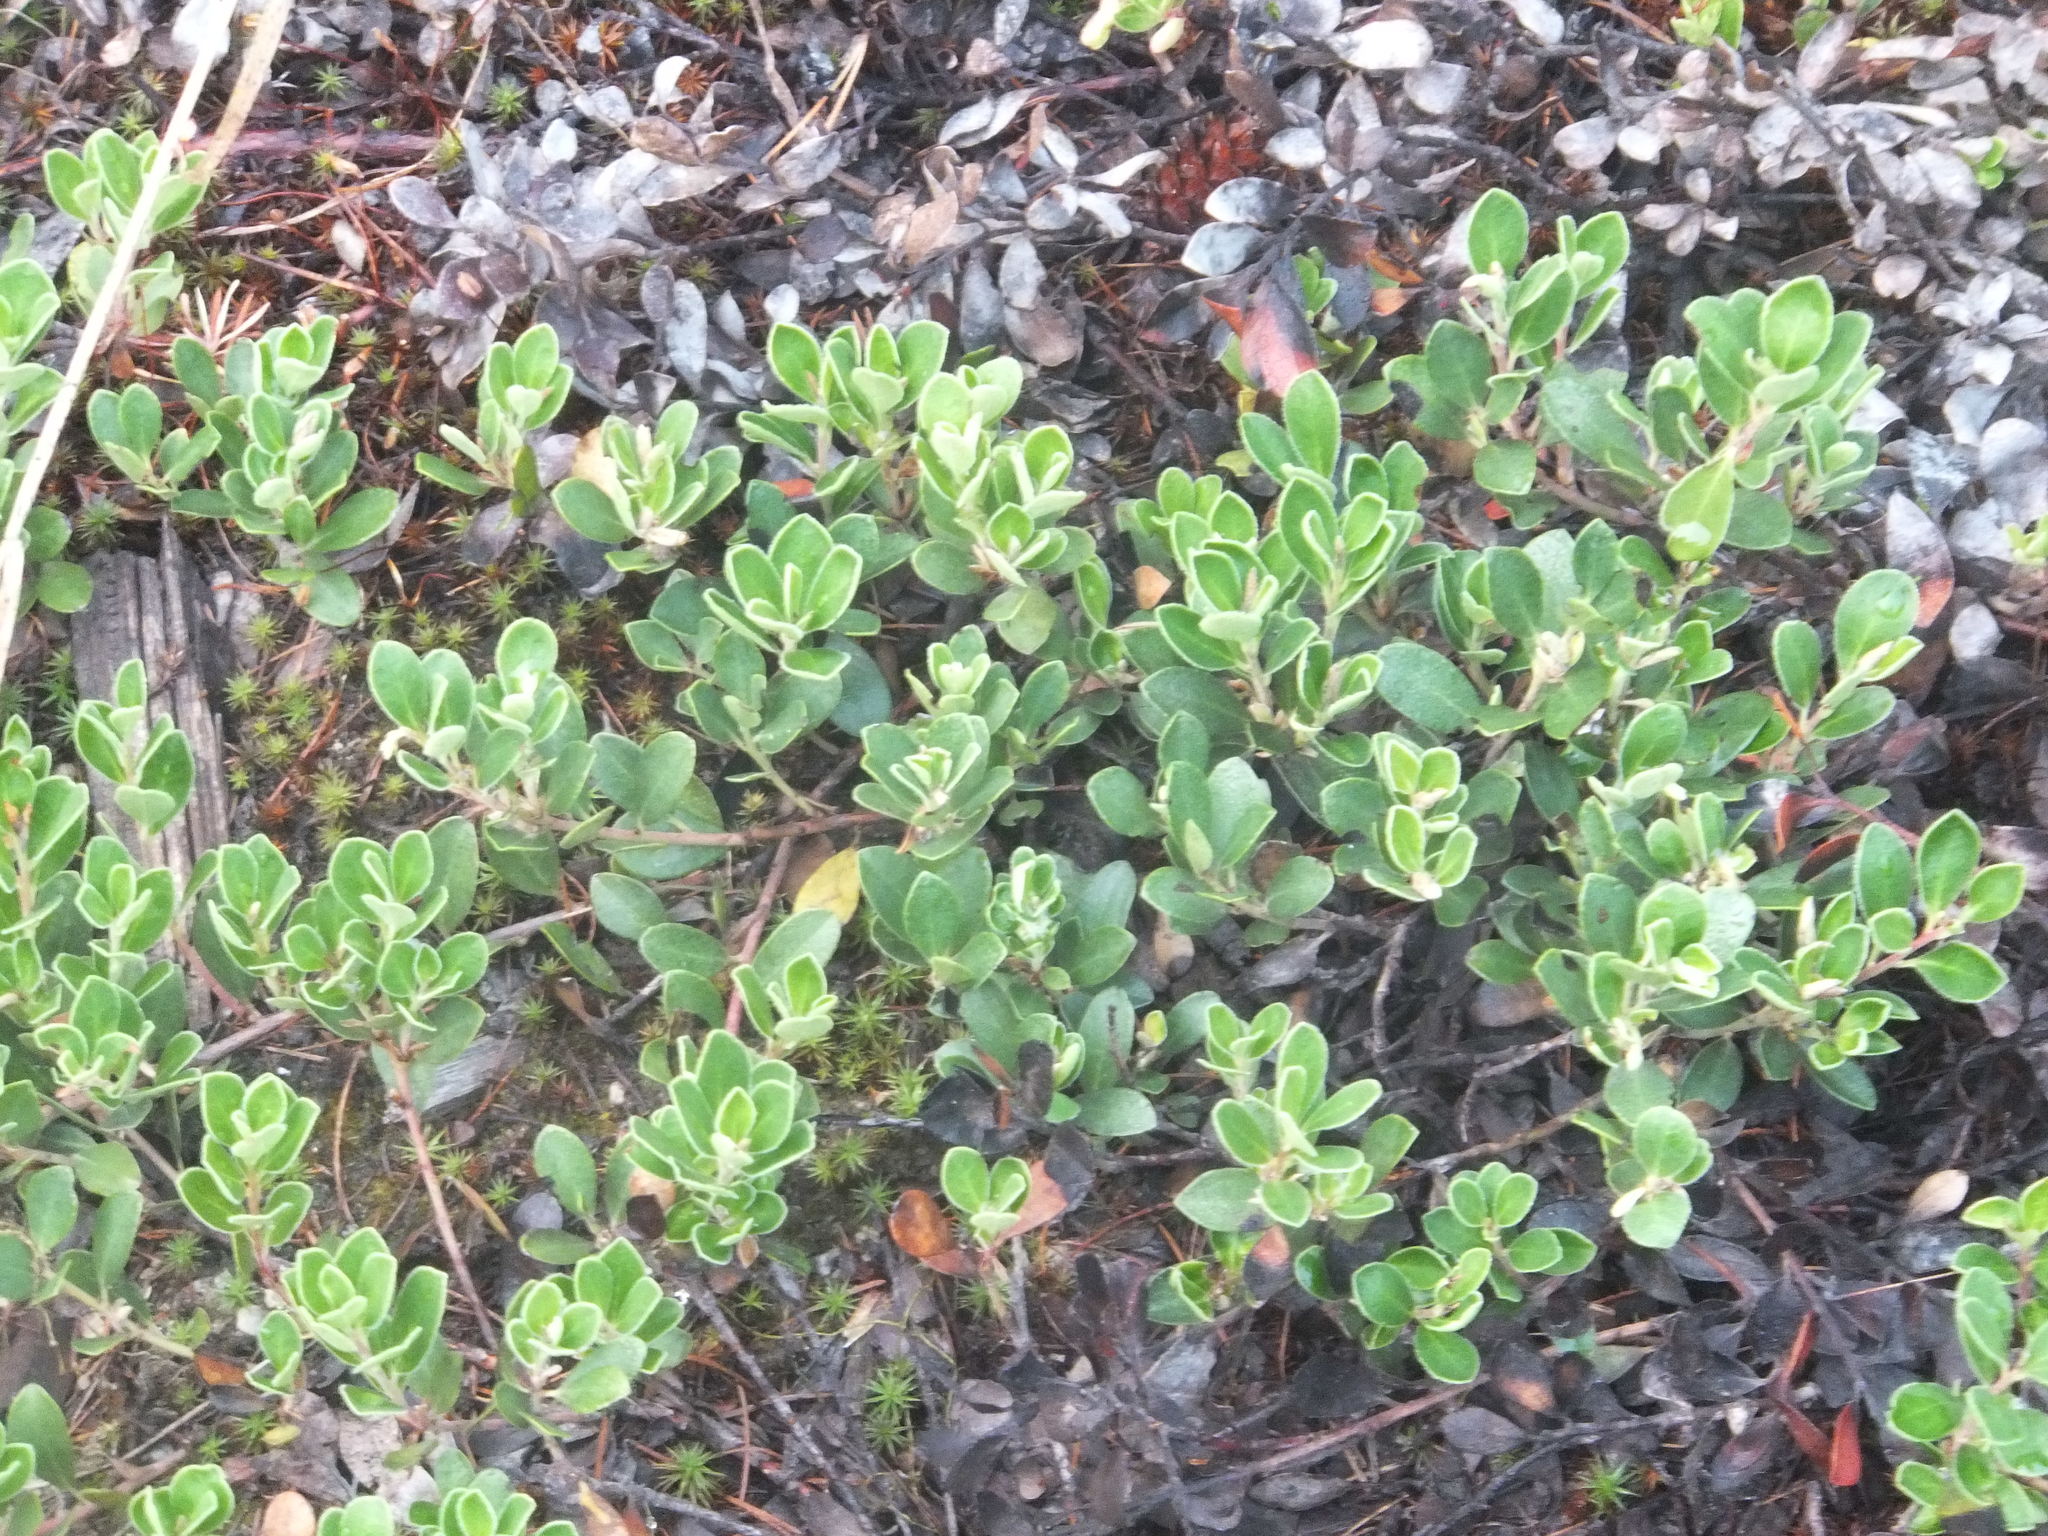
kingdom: Plantae
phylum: Tracheophyta
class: Magnoliopsida
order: Ericales
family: Ericaceae
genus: Arctostaphylos
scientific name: Arctostaphylos uva-ursi
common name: Bearberry
